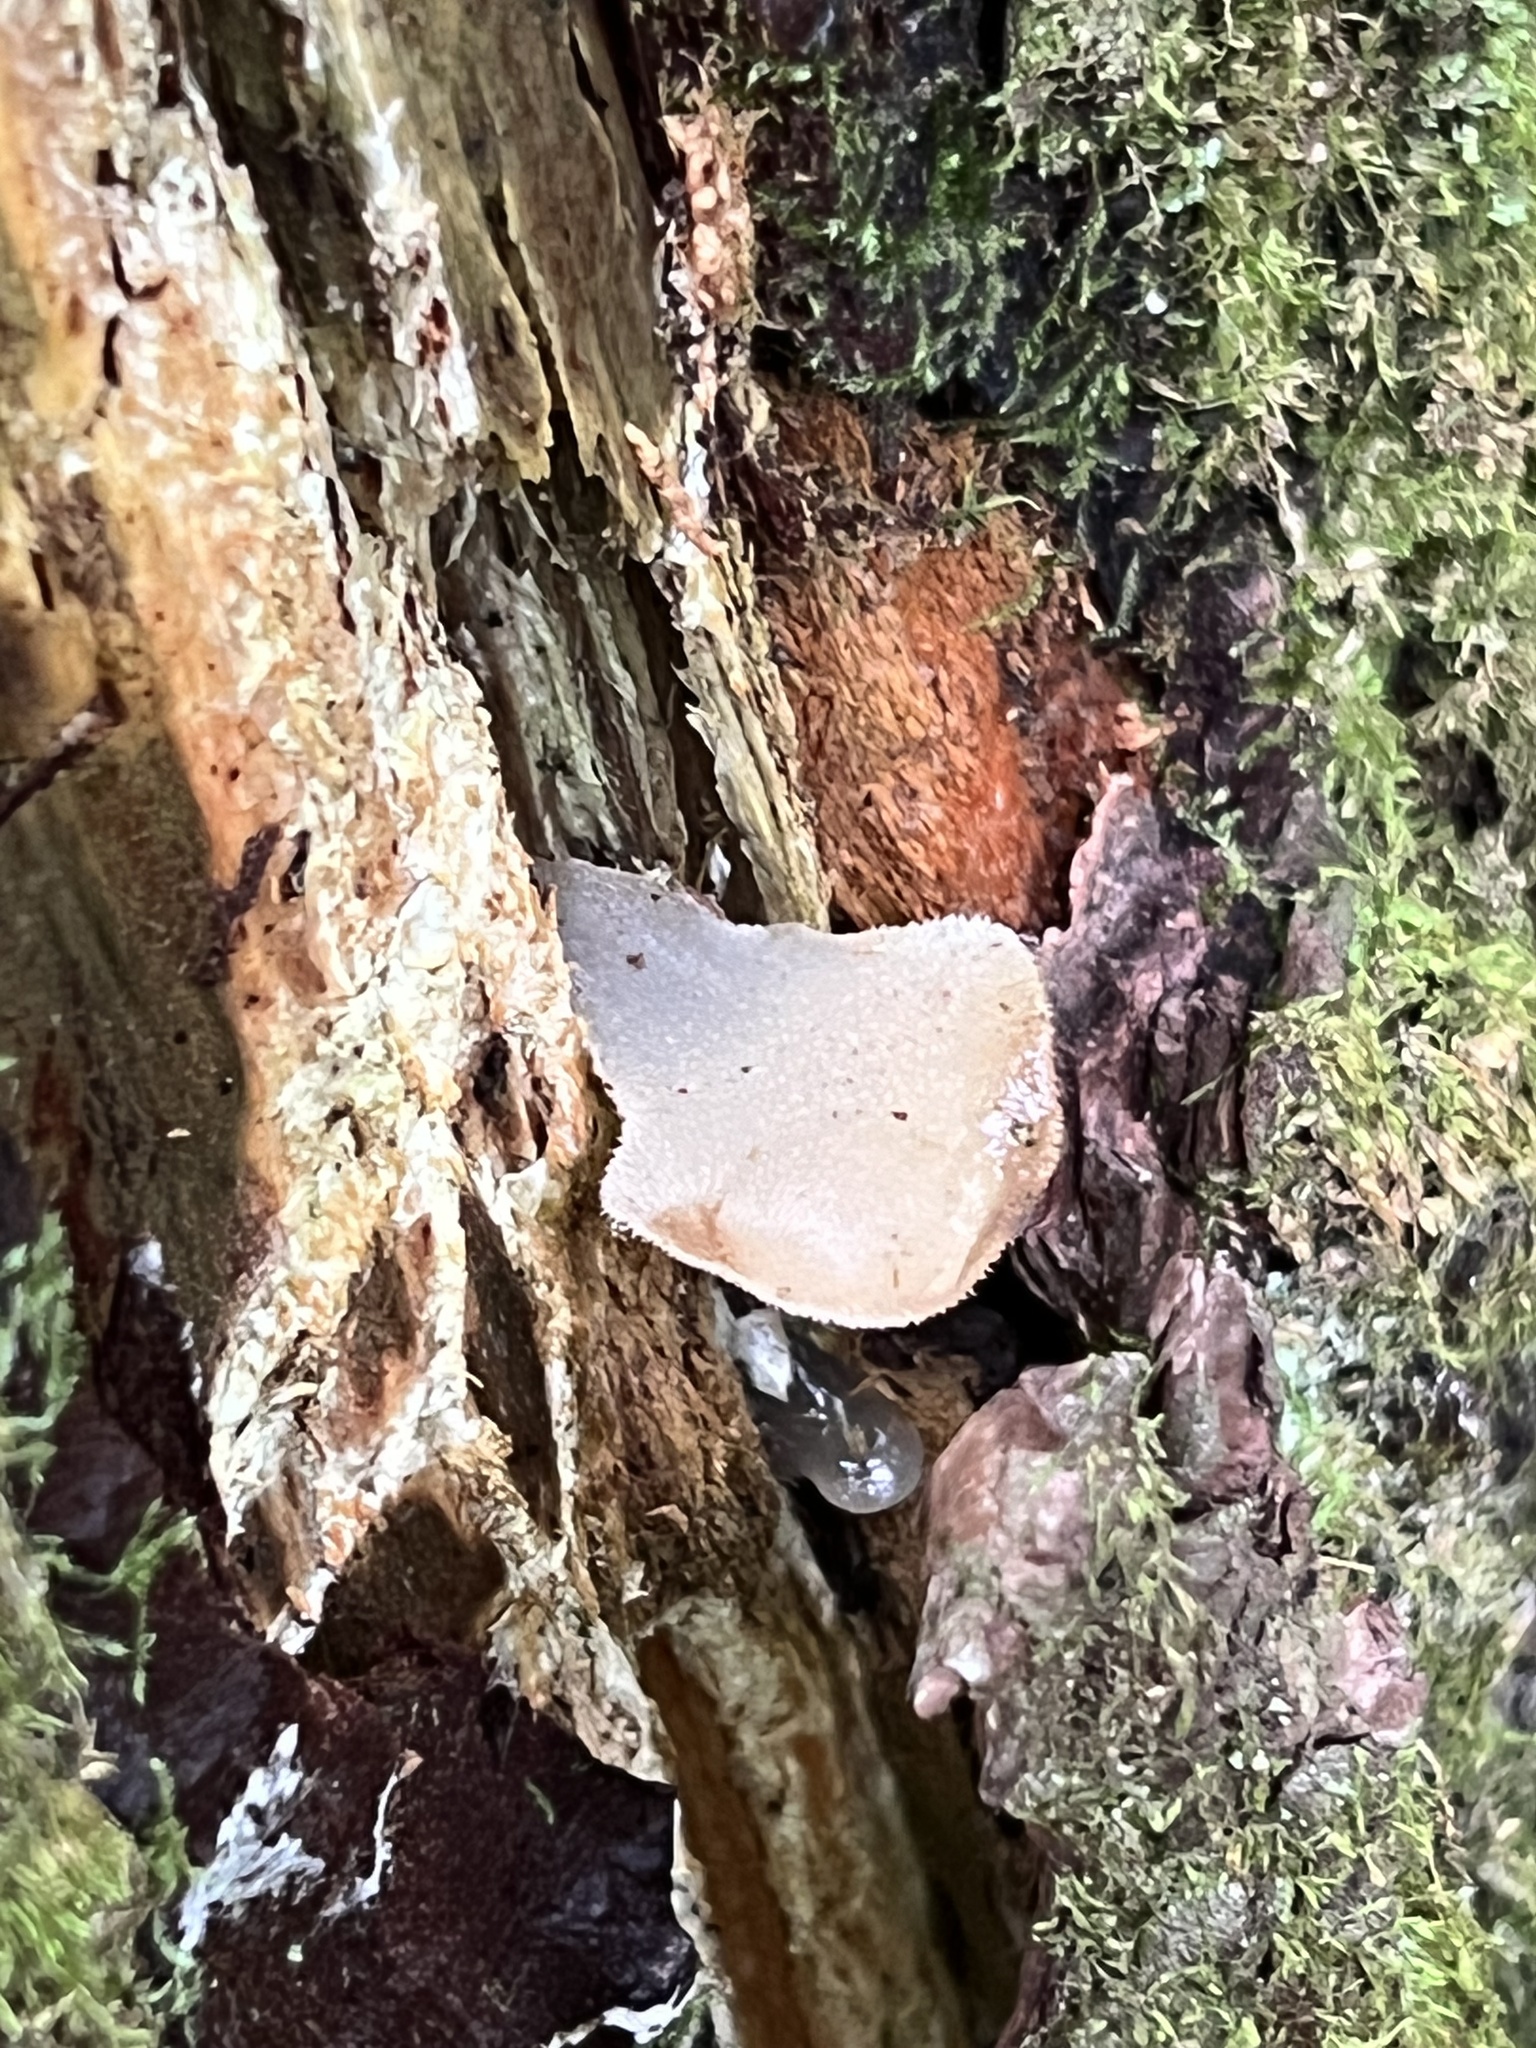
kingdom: Fungi
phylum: Basidiomycota
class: Agaricomycetes
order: Auriculariales
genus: Pseudohydnum
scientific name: Pseudohydnum gelatinosum
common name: Jelly tongue
